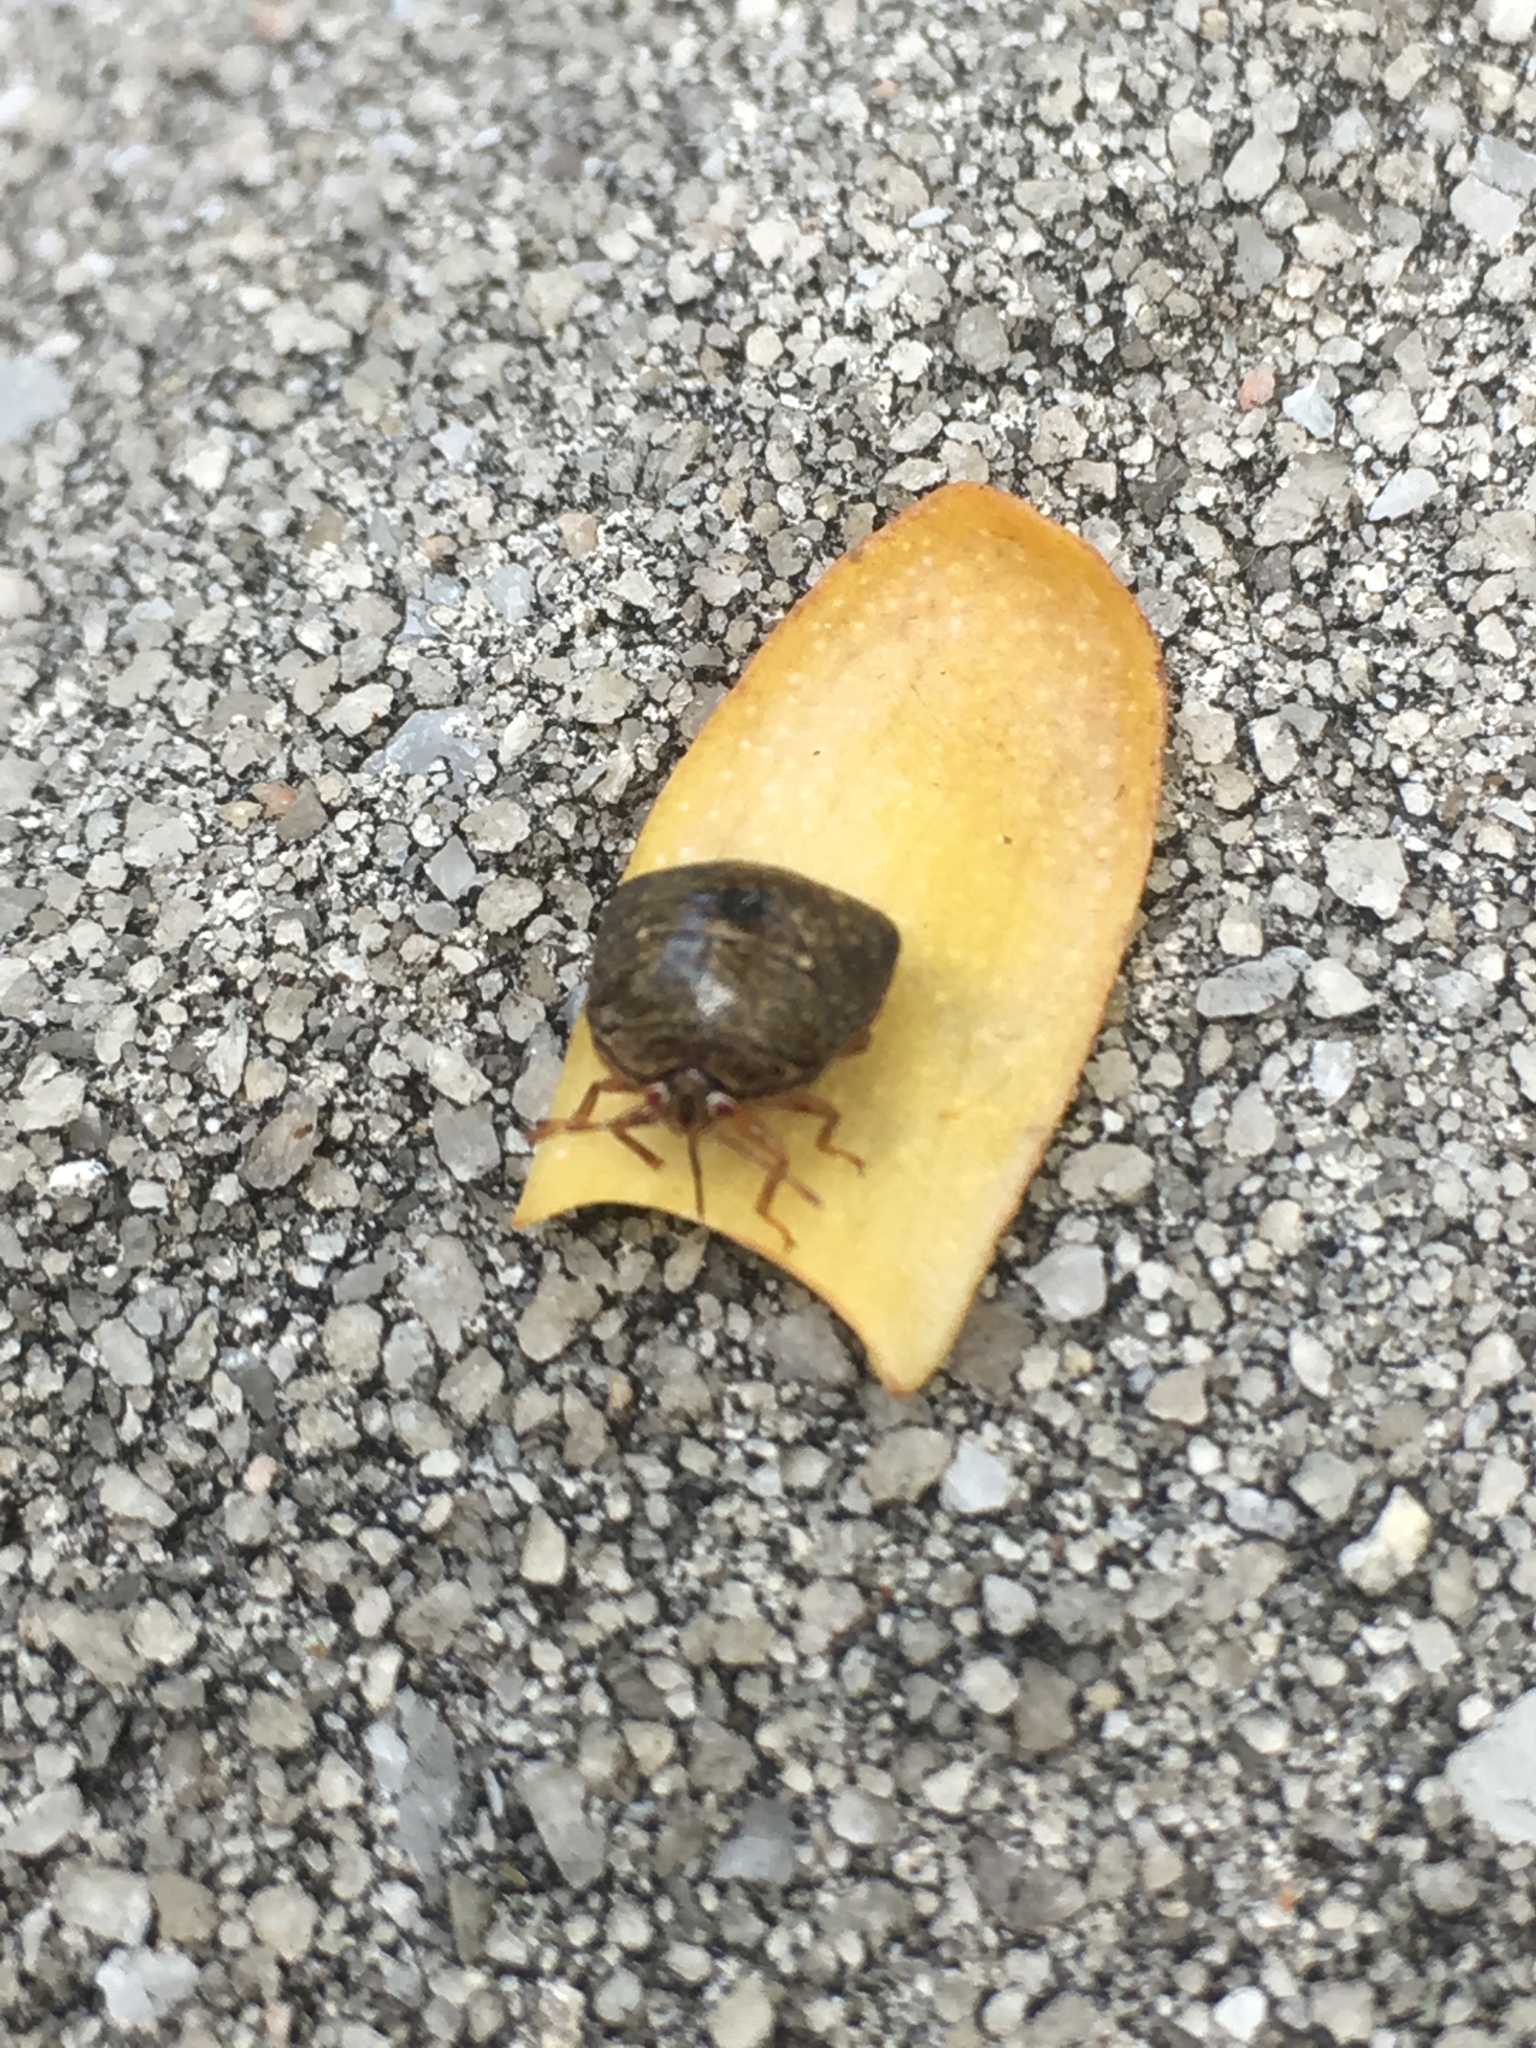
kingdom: Animalia
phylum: Arthropoda
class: Insecta
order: Hemiptera
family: Plataspidae
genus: Megacopta
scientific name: Megacopta cribraria
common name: Bean plataspid
